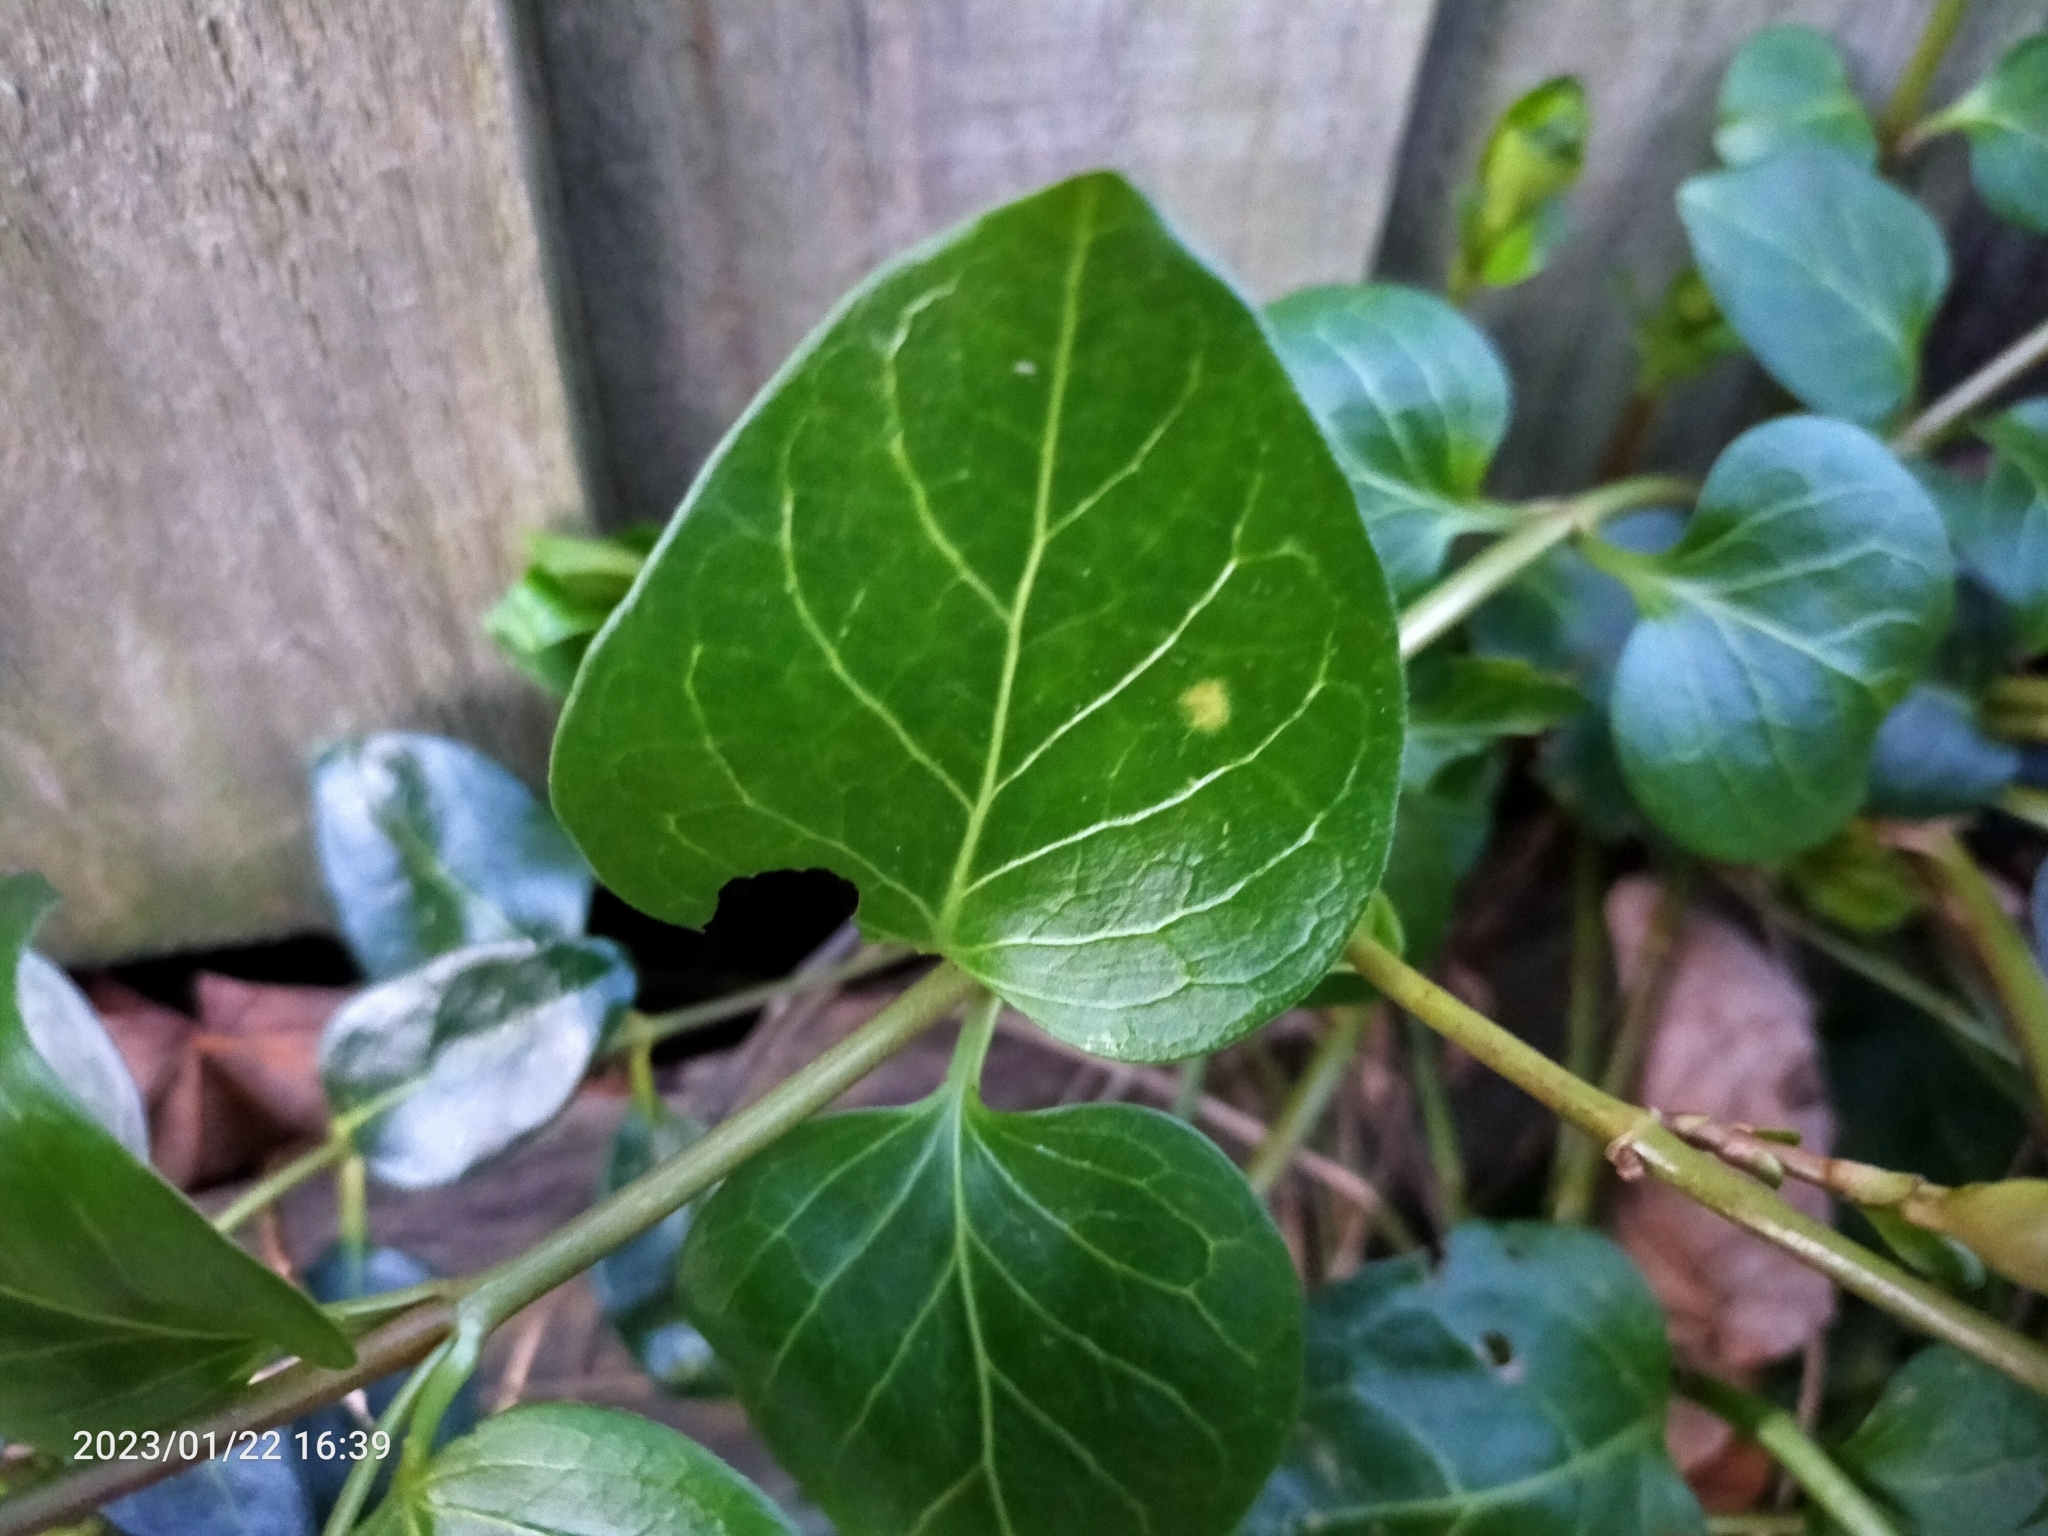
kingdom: Plantae
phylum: Tracheophyta
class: Magnoliopsida
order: Gentianales
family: Apocynaceae
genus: Vinca
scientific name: Vinca major
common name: Greater periwinkle
